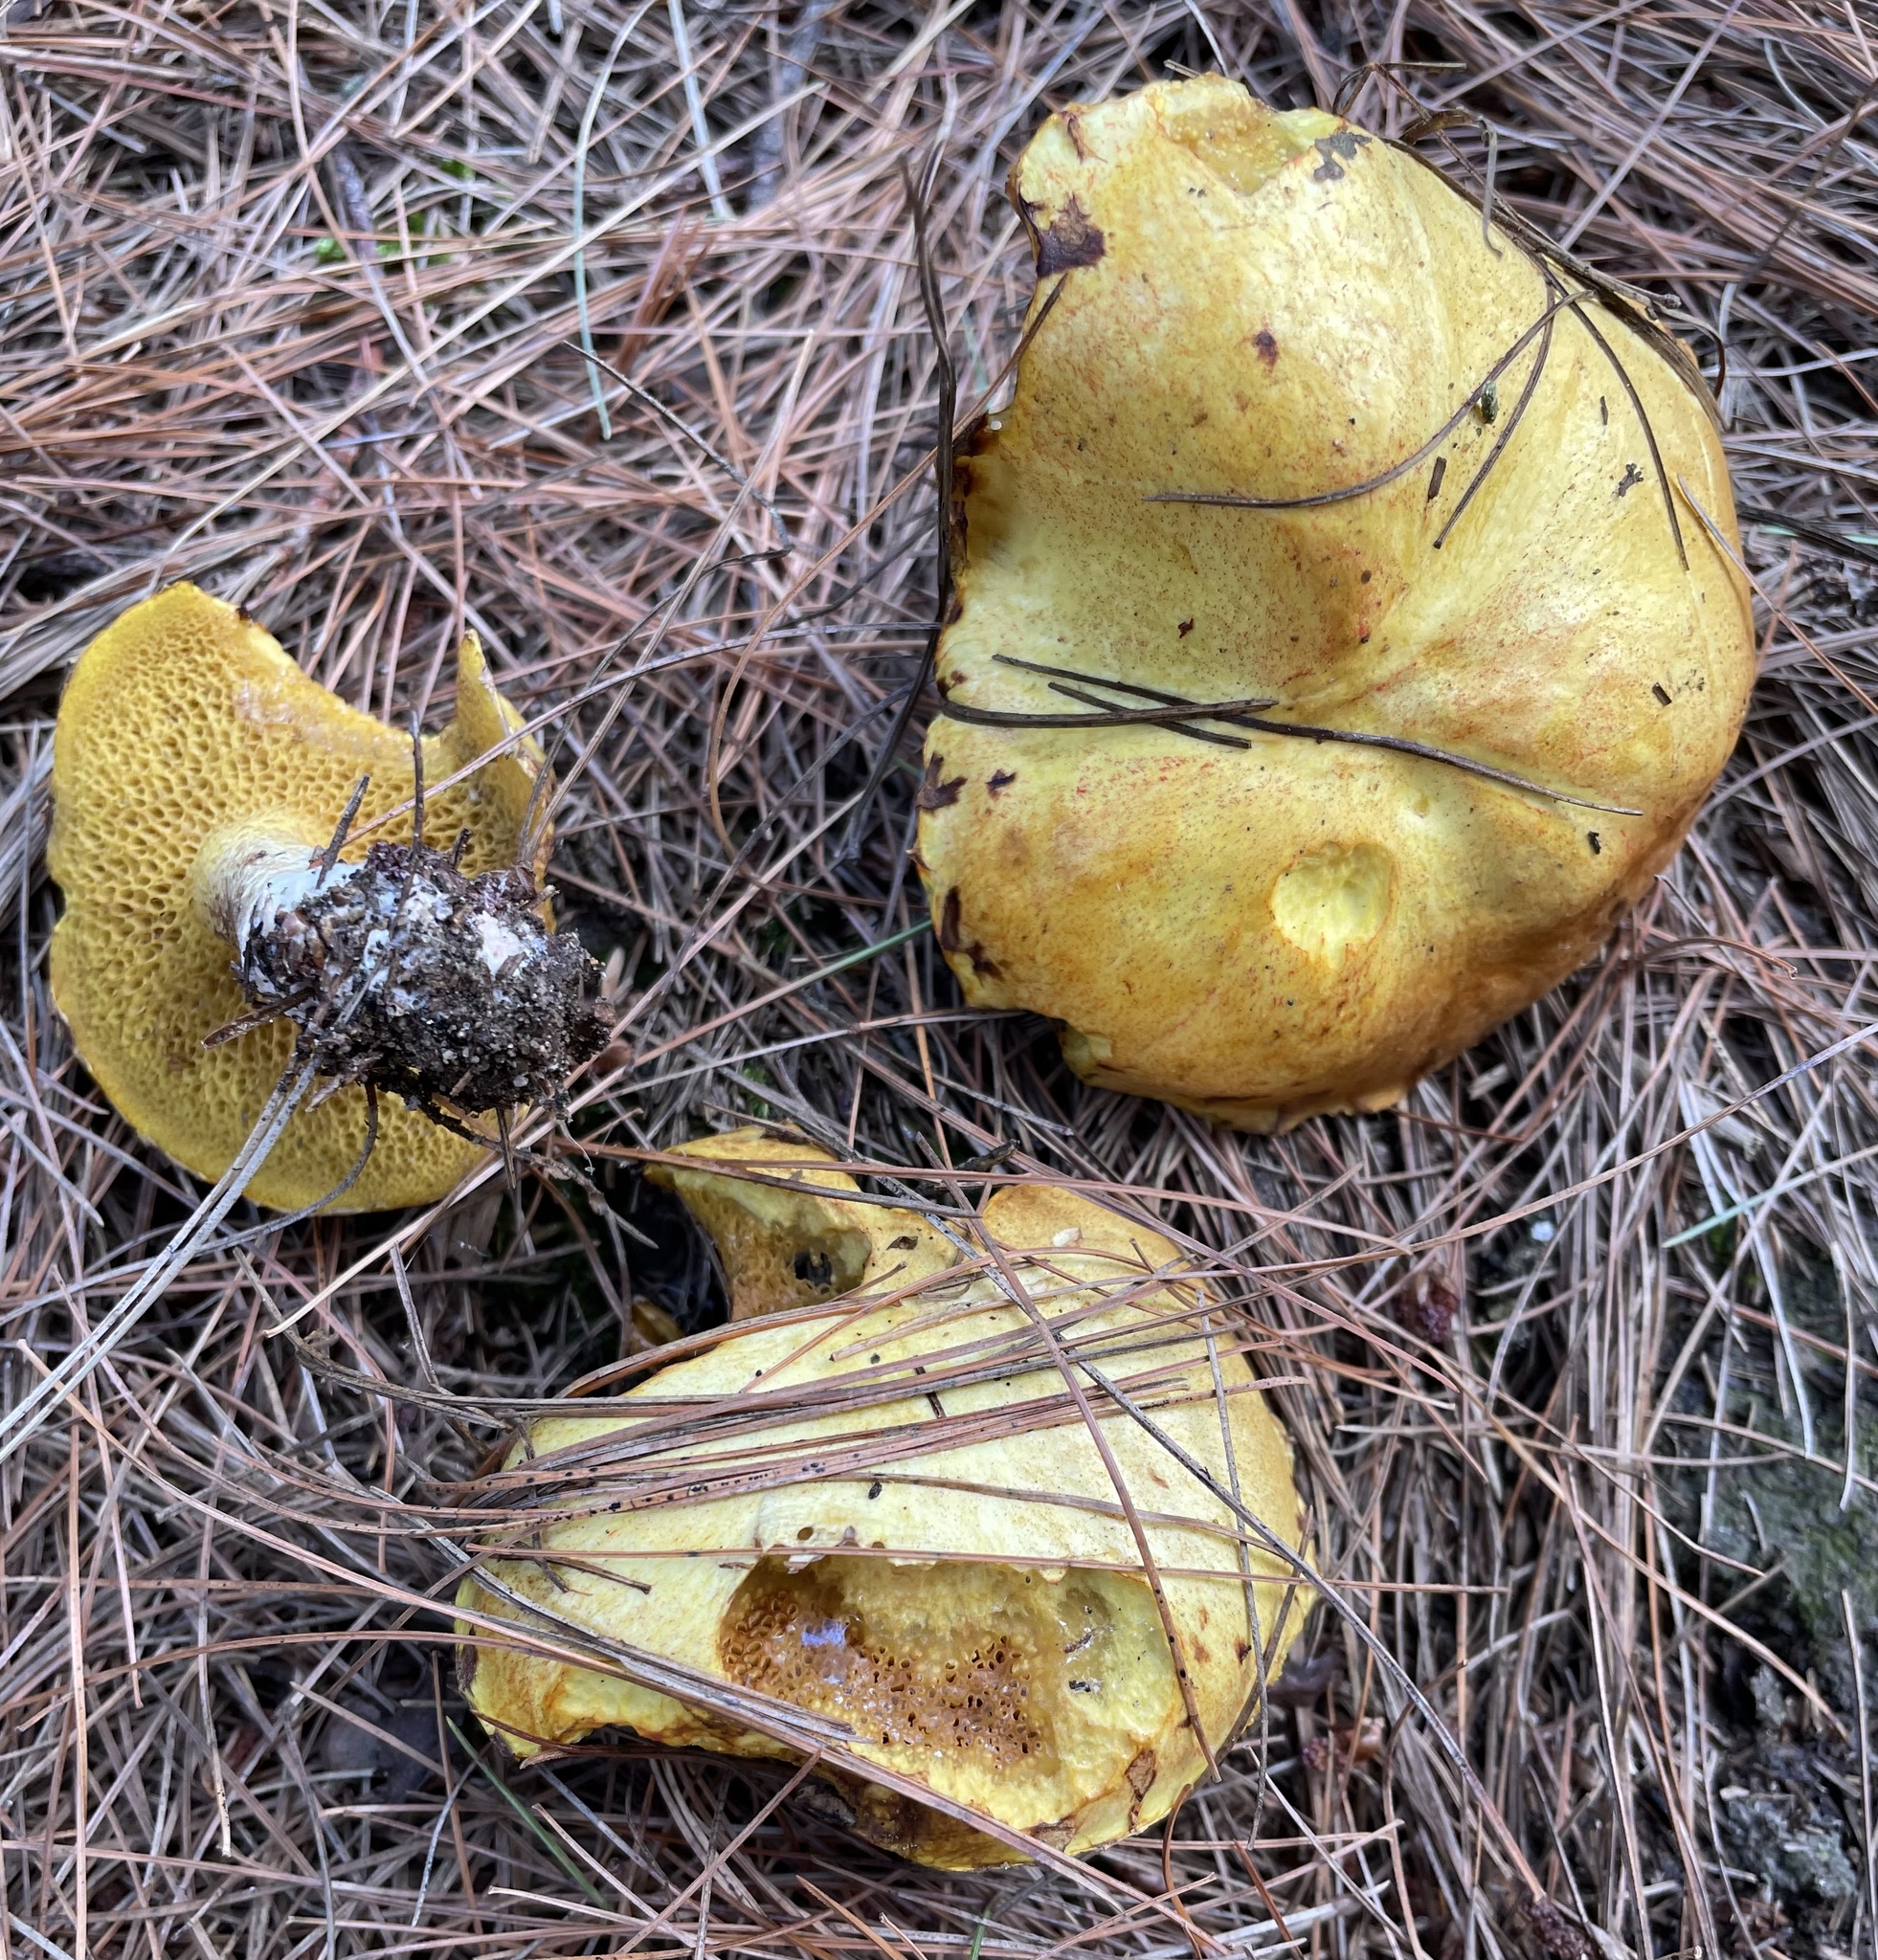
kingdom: Fungi
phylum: Basidiomycota
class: Agaricomycetes
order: Boletales
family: Suillaceae
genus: Suillus
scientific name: Suillus americanus
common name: Chicken fat mushroom
